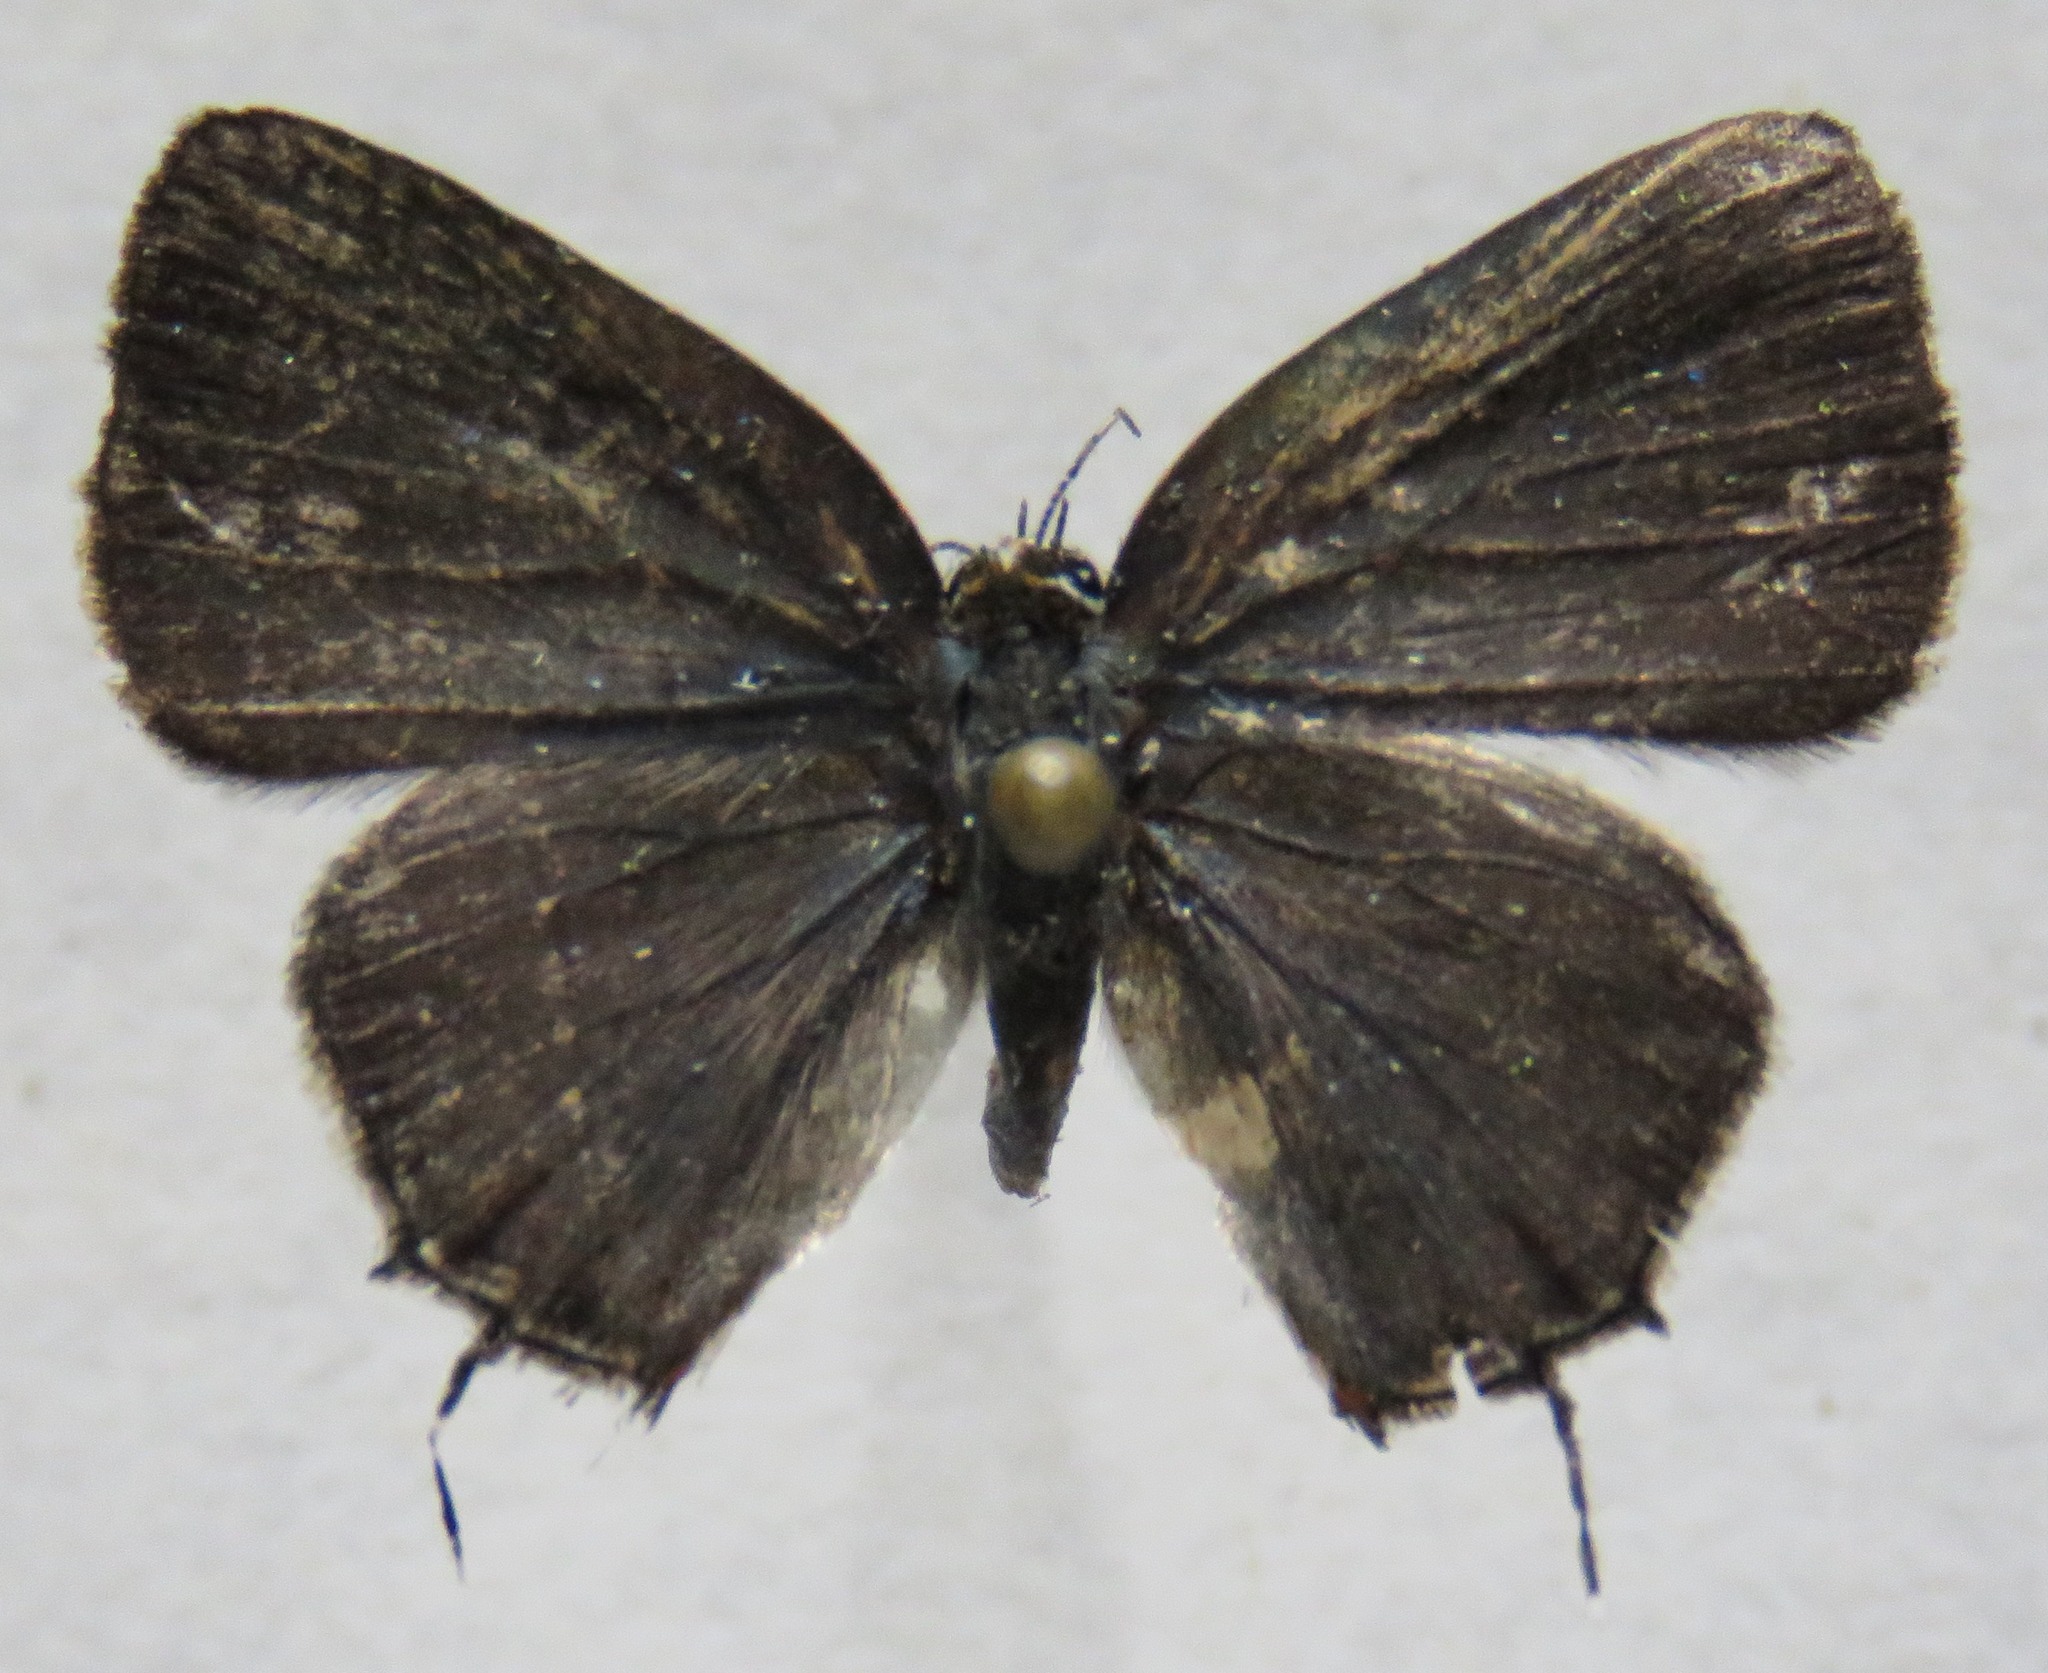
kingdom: Animalia
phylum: Arthropoda
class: Insecta
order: Lepidoptera
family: Lycaenidae
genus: Thecla
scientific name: Thecla caninius
